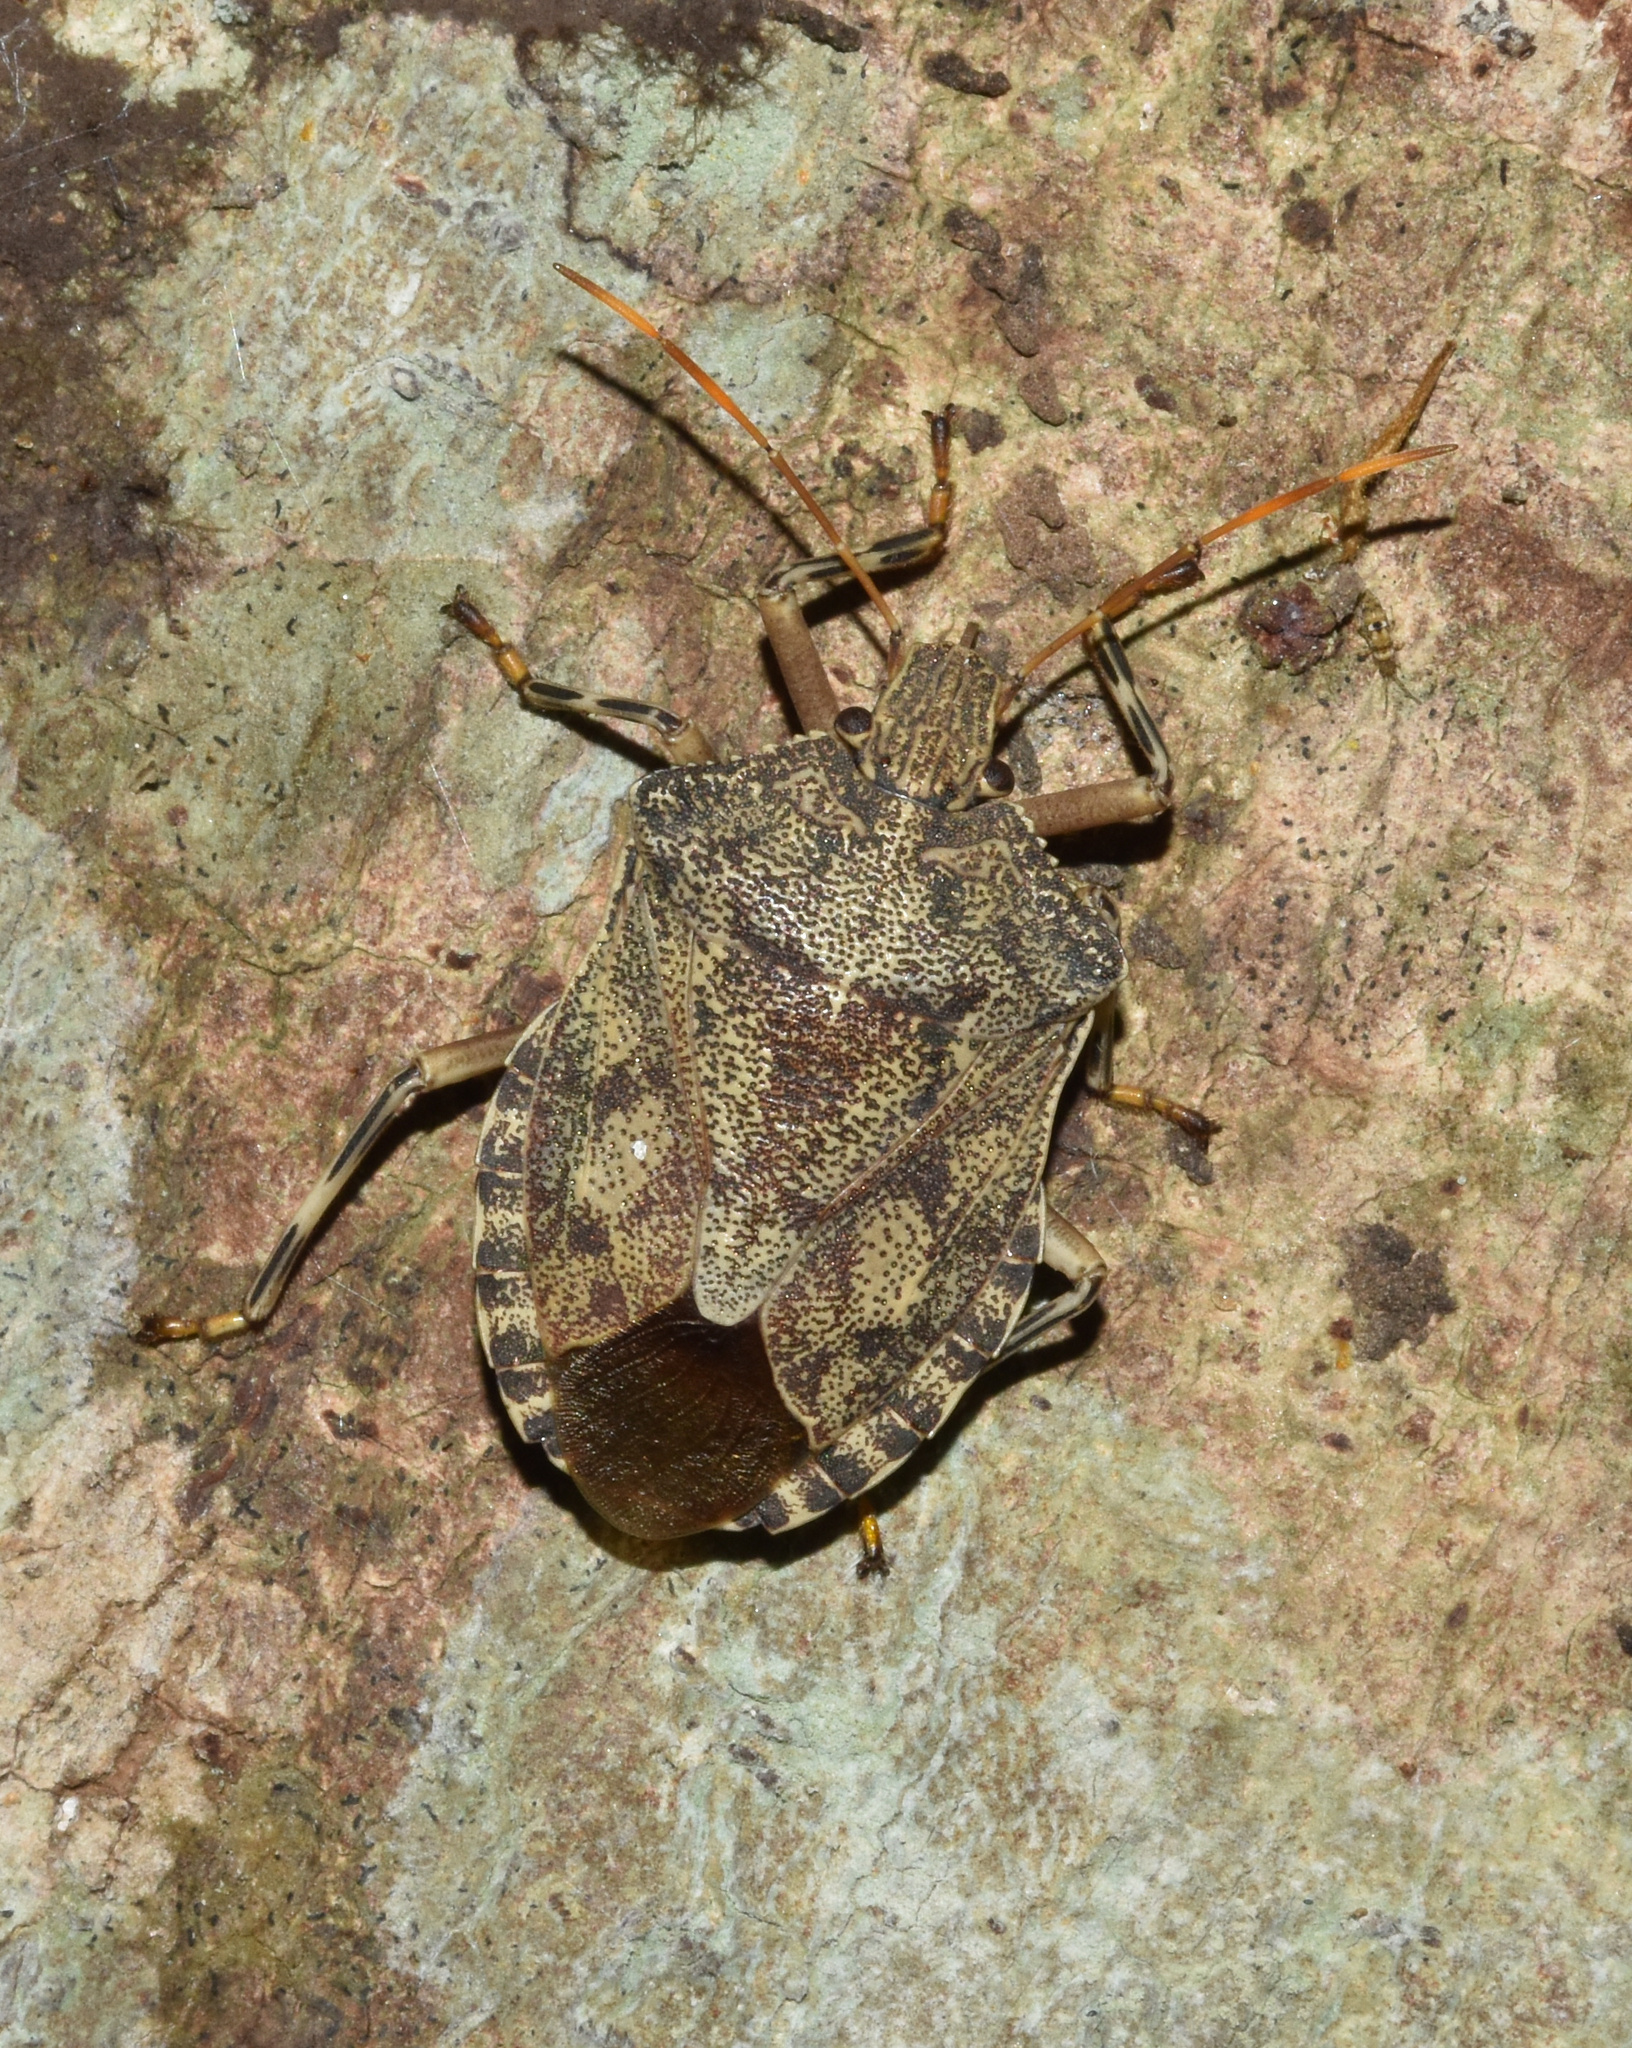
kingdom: Animalia
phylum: Arthropoda
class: Insecta
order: Hemiptera
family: Pentatomidae
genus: Coenomorpha
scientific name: Coenomorpha
